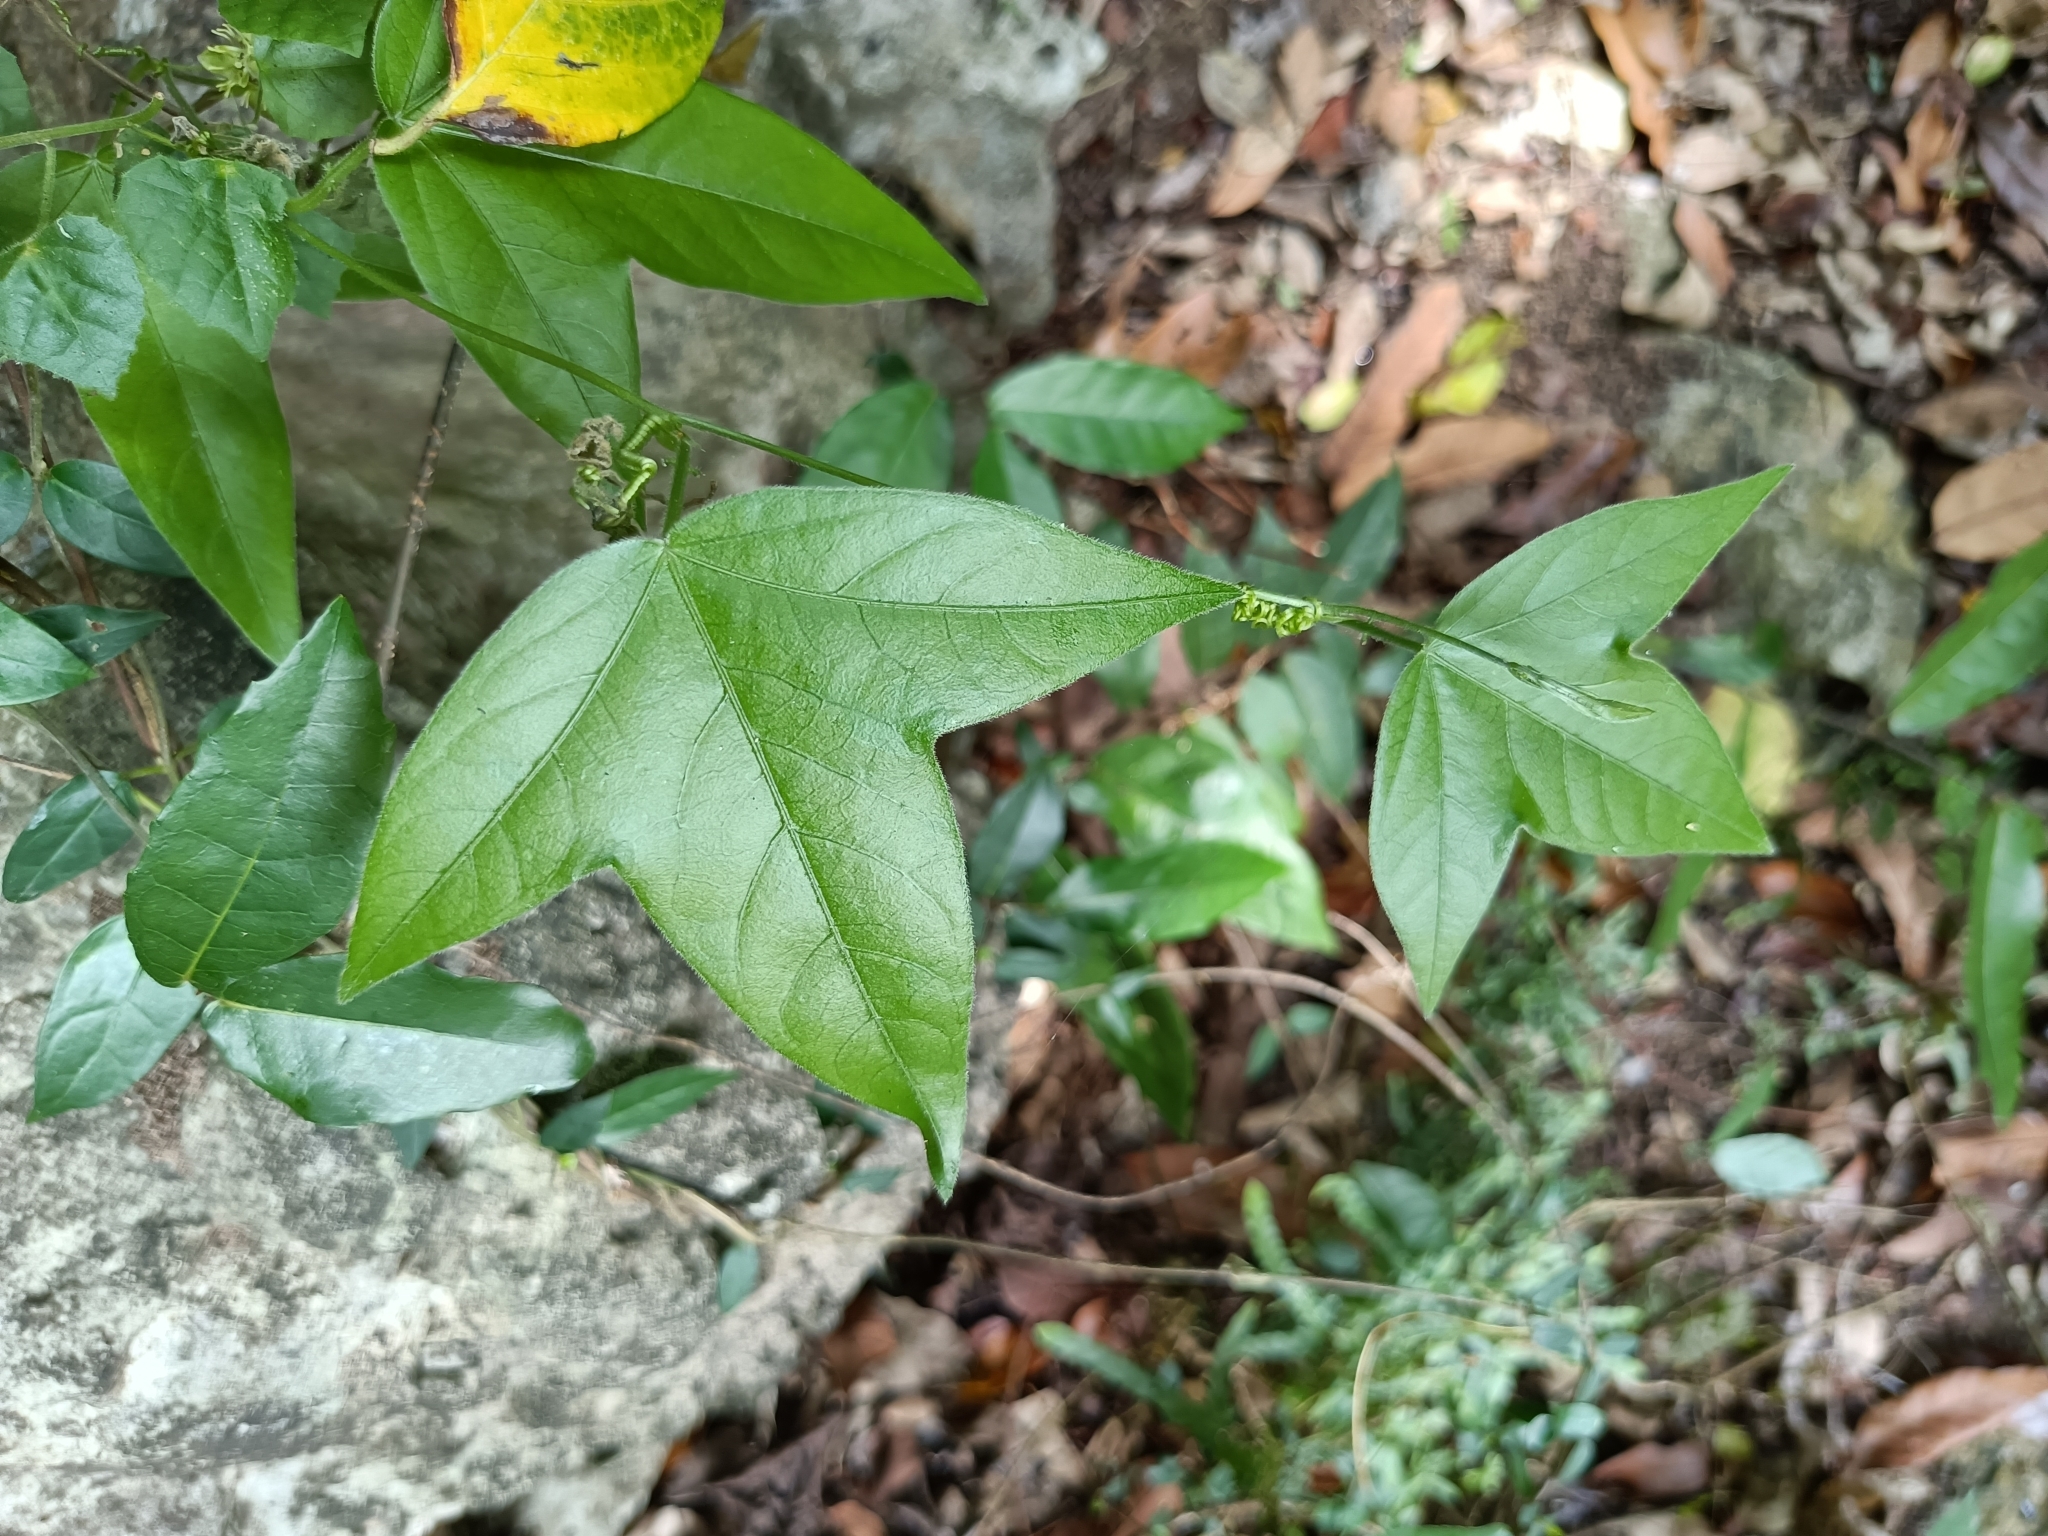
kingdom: Plantae
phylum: Tracheophyta
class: Magnoliopsida
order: Malpighiales
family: Passifloraceae
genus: Passiflora
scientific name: Passiflora suberosa
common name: Wild passionfruit
